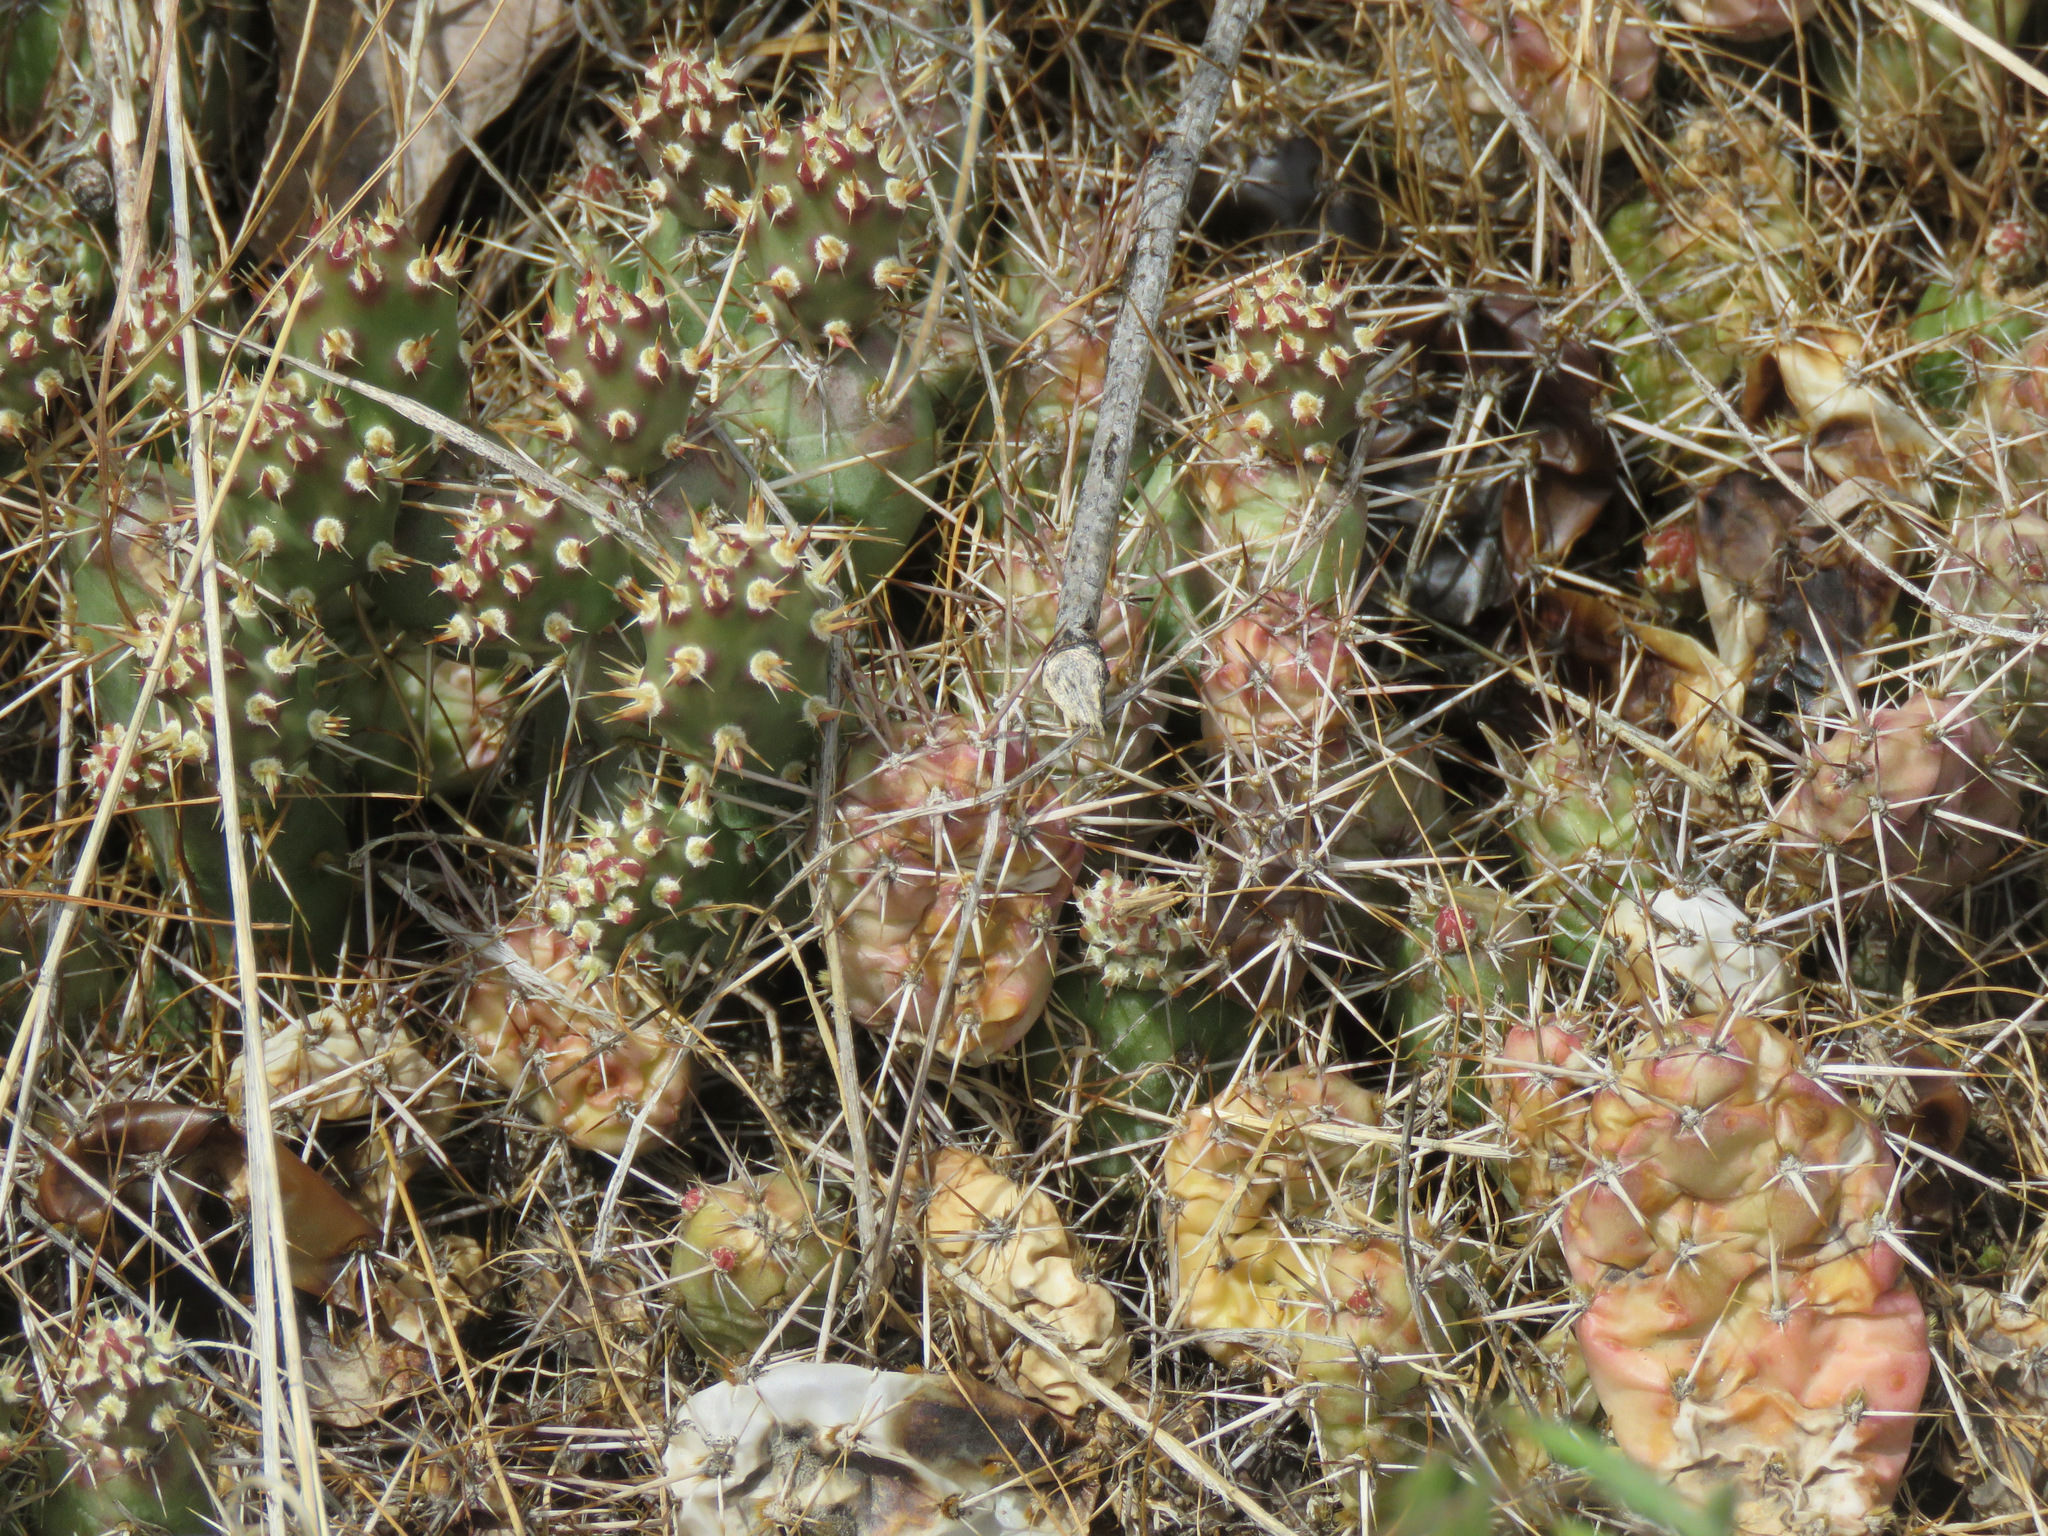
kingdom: Plantae
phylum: Tracheophyta
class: Magnoliopsida
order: Caryophyllales
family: Cactaceae
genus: Opuntia
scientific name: Opuntia fragilis
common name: Brittle cactus
